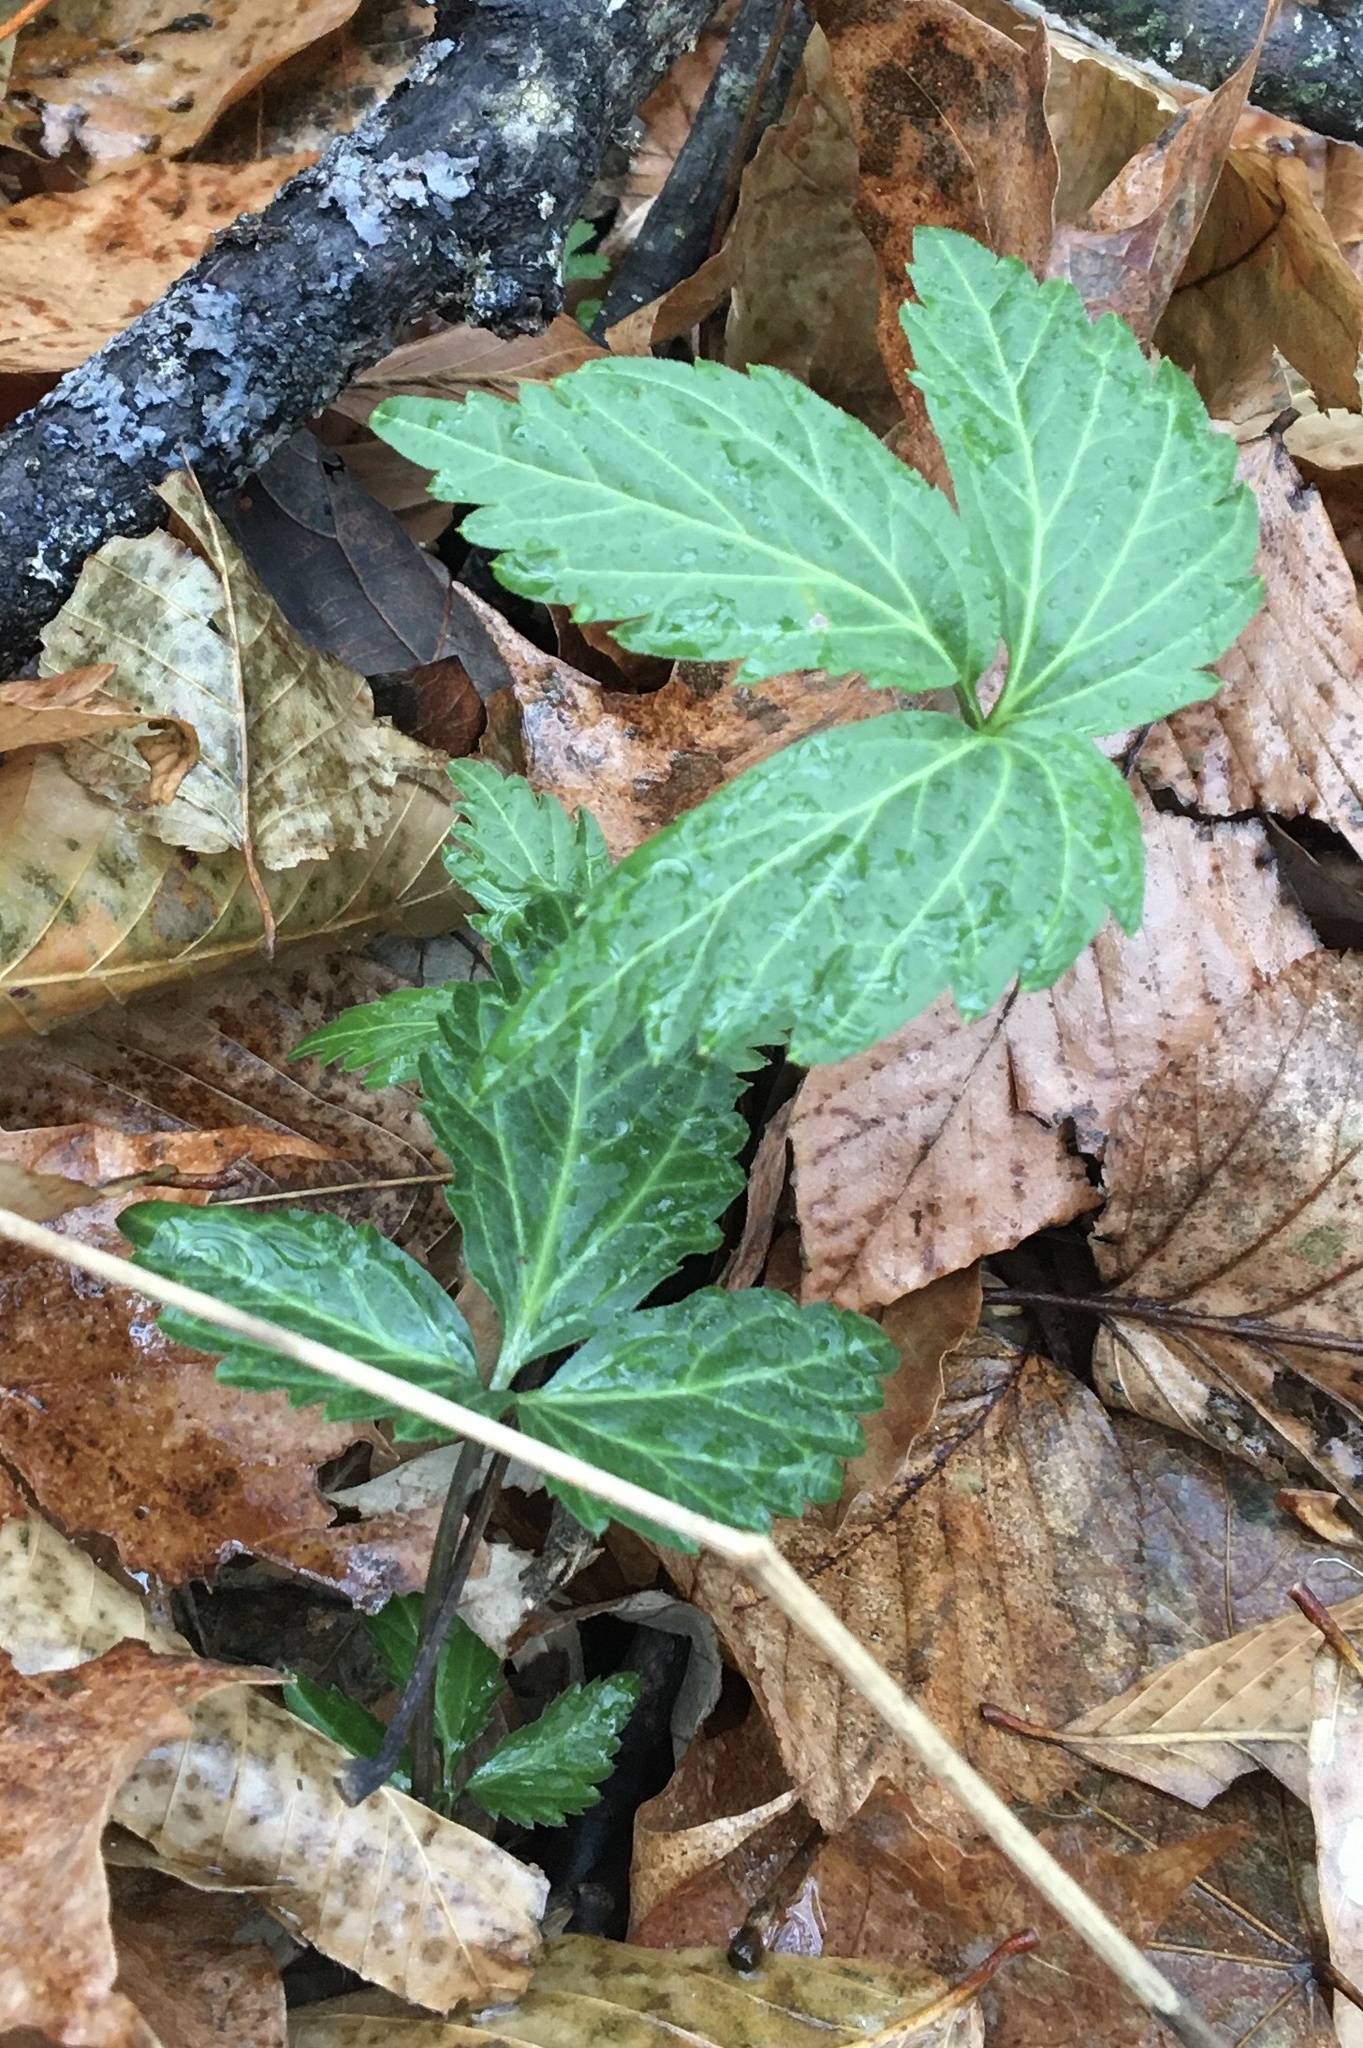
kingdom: Plantae
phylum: Tracheophyta
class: Magnoliopsida
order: Brassicales
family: Brassicaceae
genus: Cardamine
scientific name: Cardamine diphylla
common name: Broad-leaved toothwort
